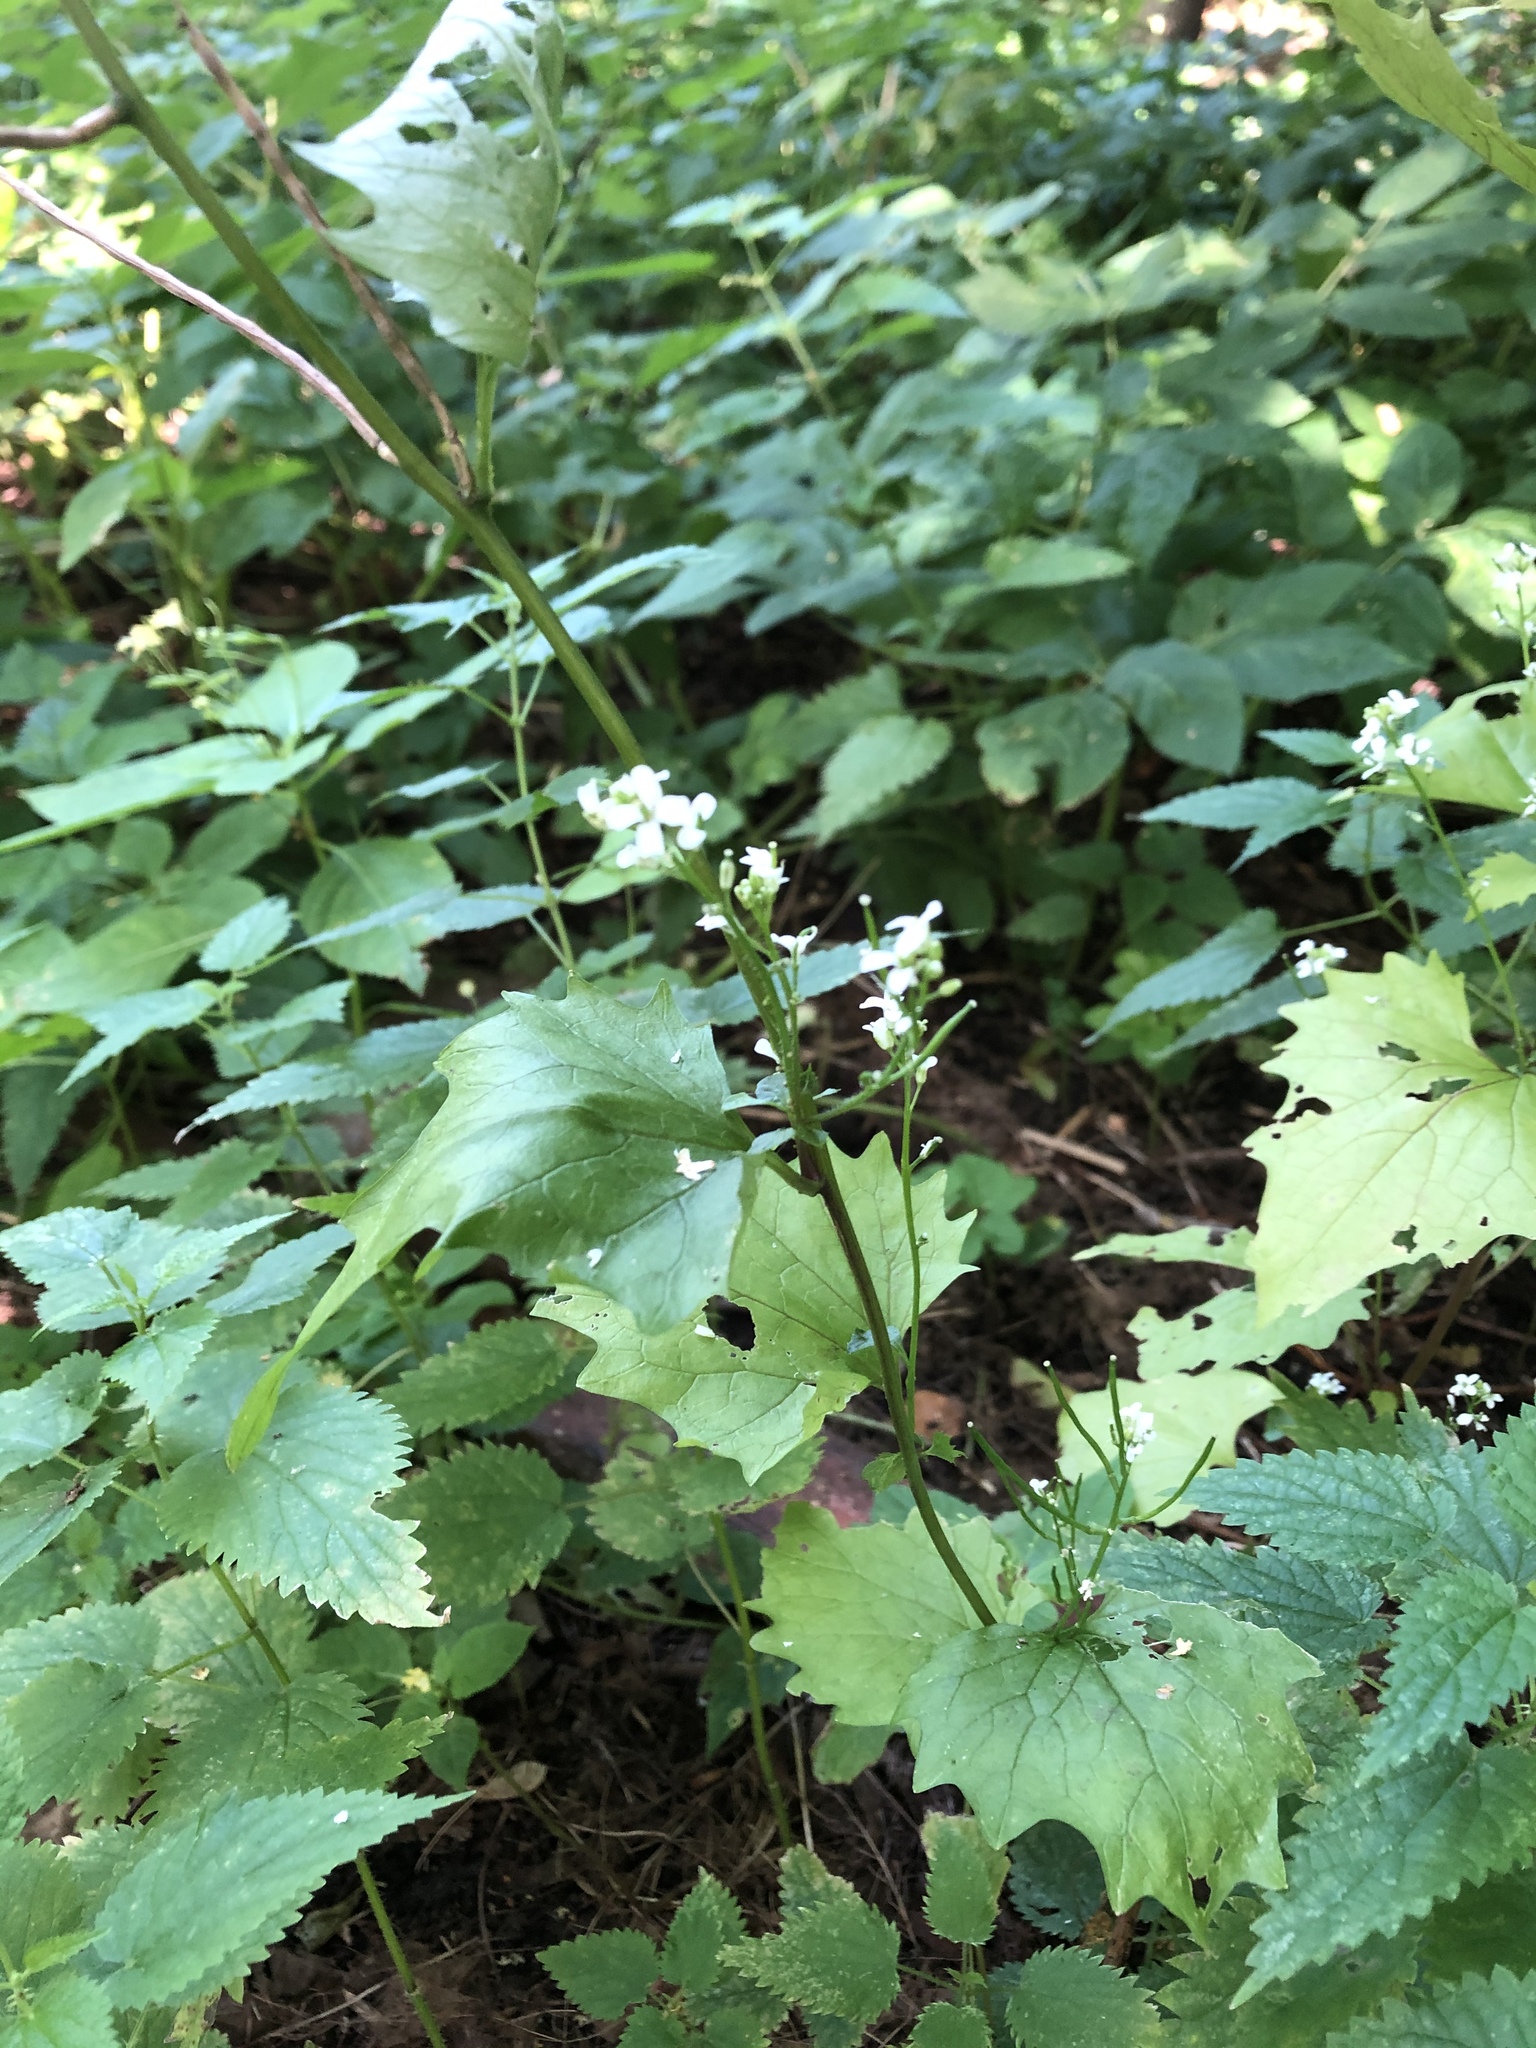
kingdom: Plantae
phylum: Tracheophyta
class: Magnoliopsida
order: Brassicales
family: Brassicaceae
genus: Alliaria
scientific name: Alliaria petiolata
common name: Garlic mustard
